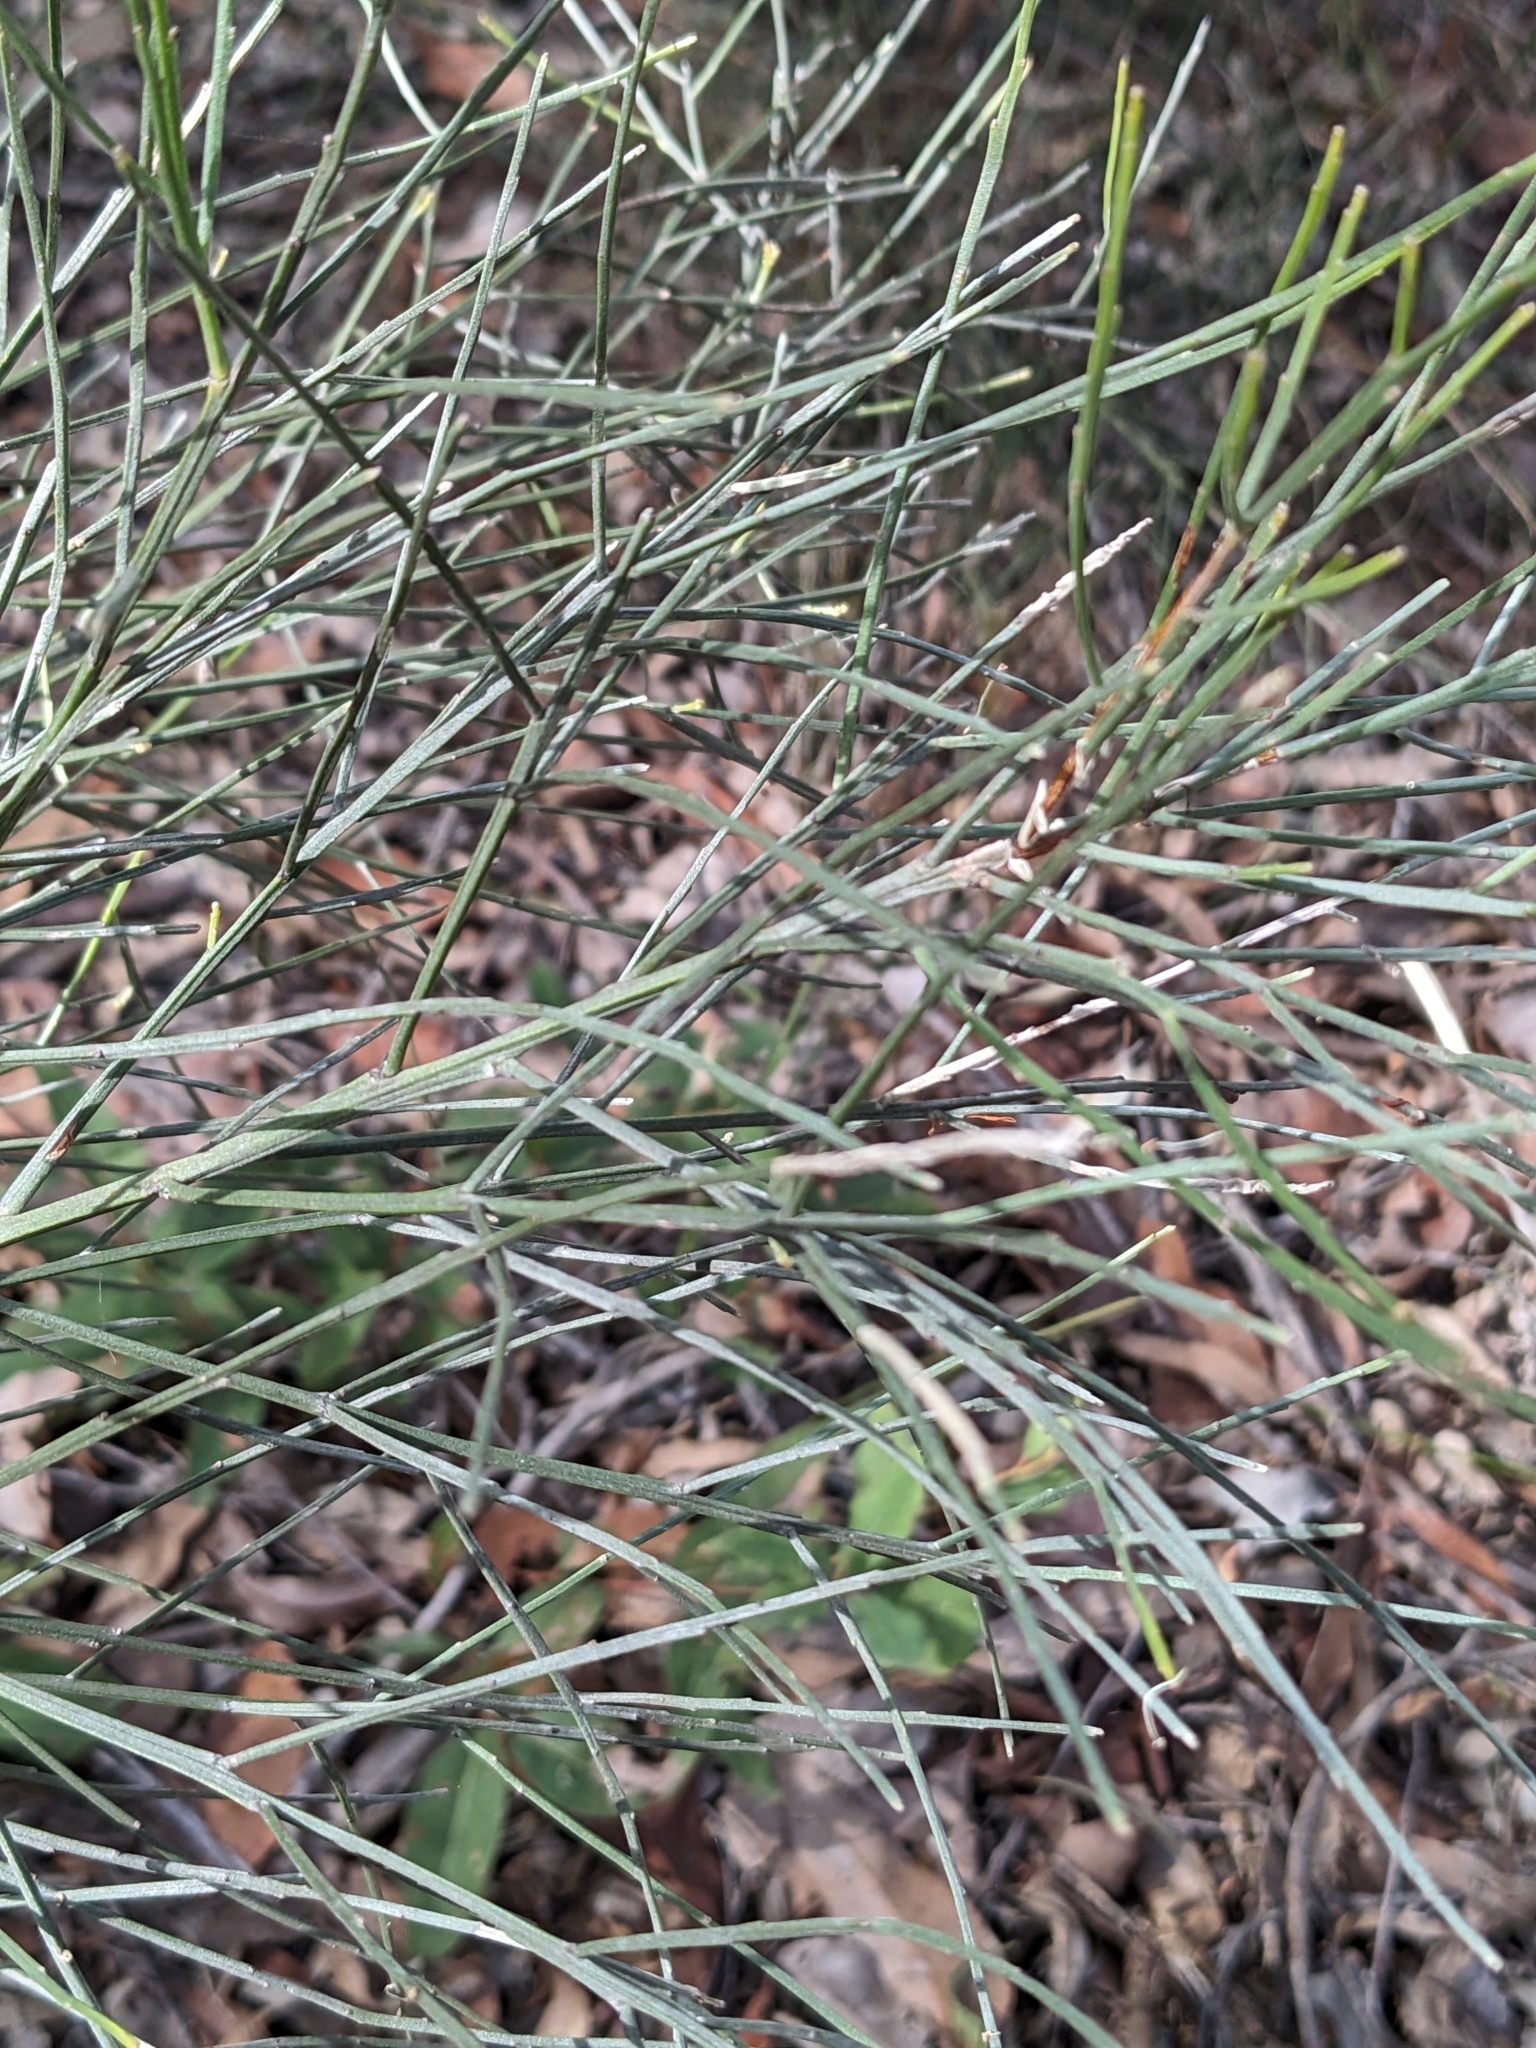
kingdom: Plantae
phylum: Tracheophyta
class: Magnoliopsida
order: Fabales
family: Fabaceae
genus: Jacksonia
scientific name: Jacksonia scoparia
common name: Dogwood
